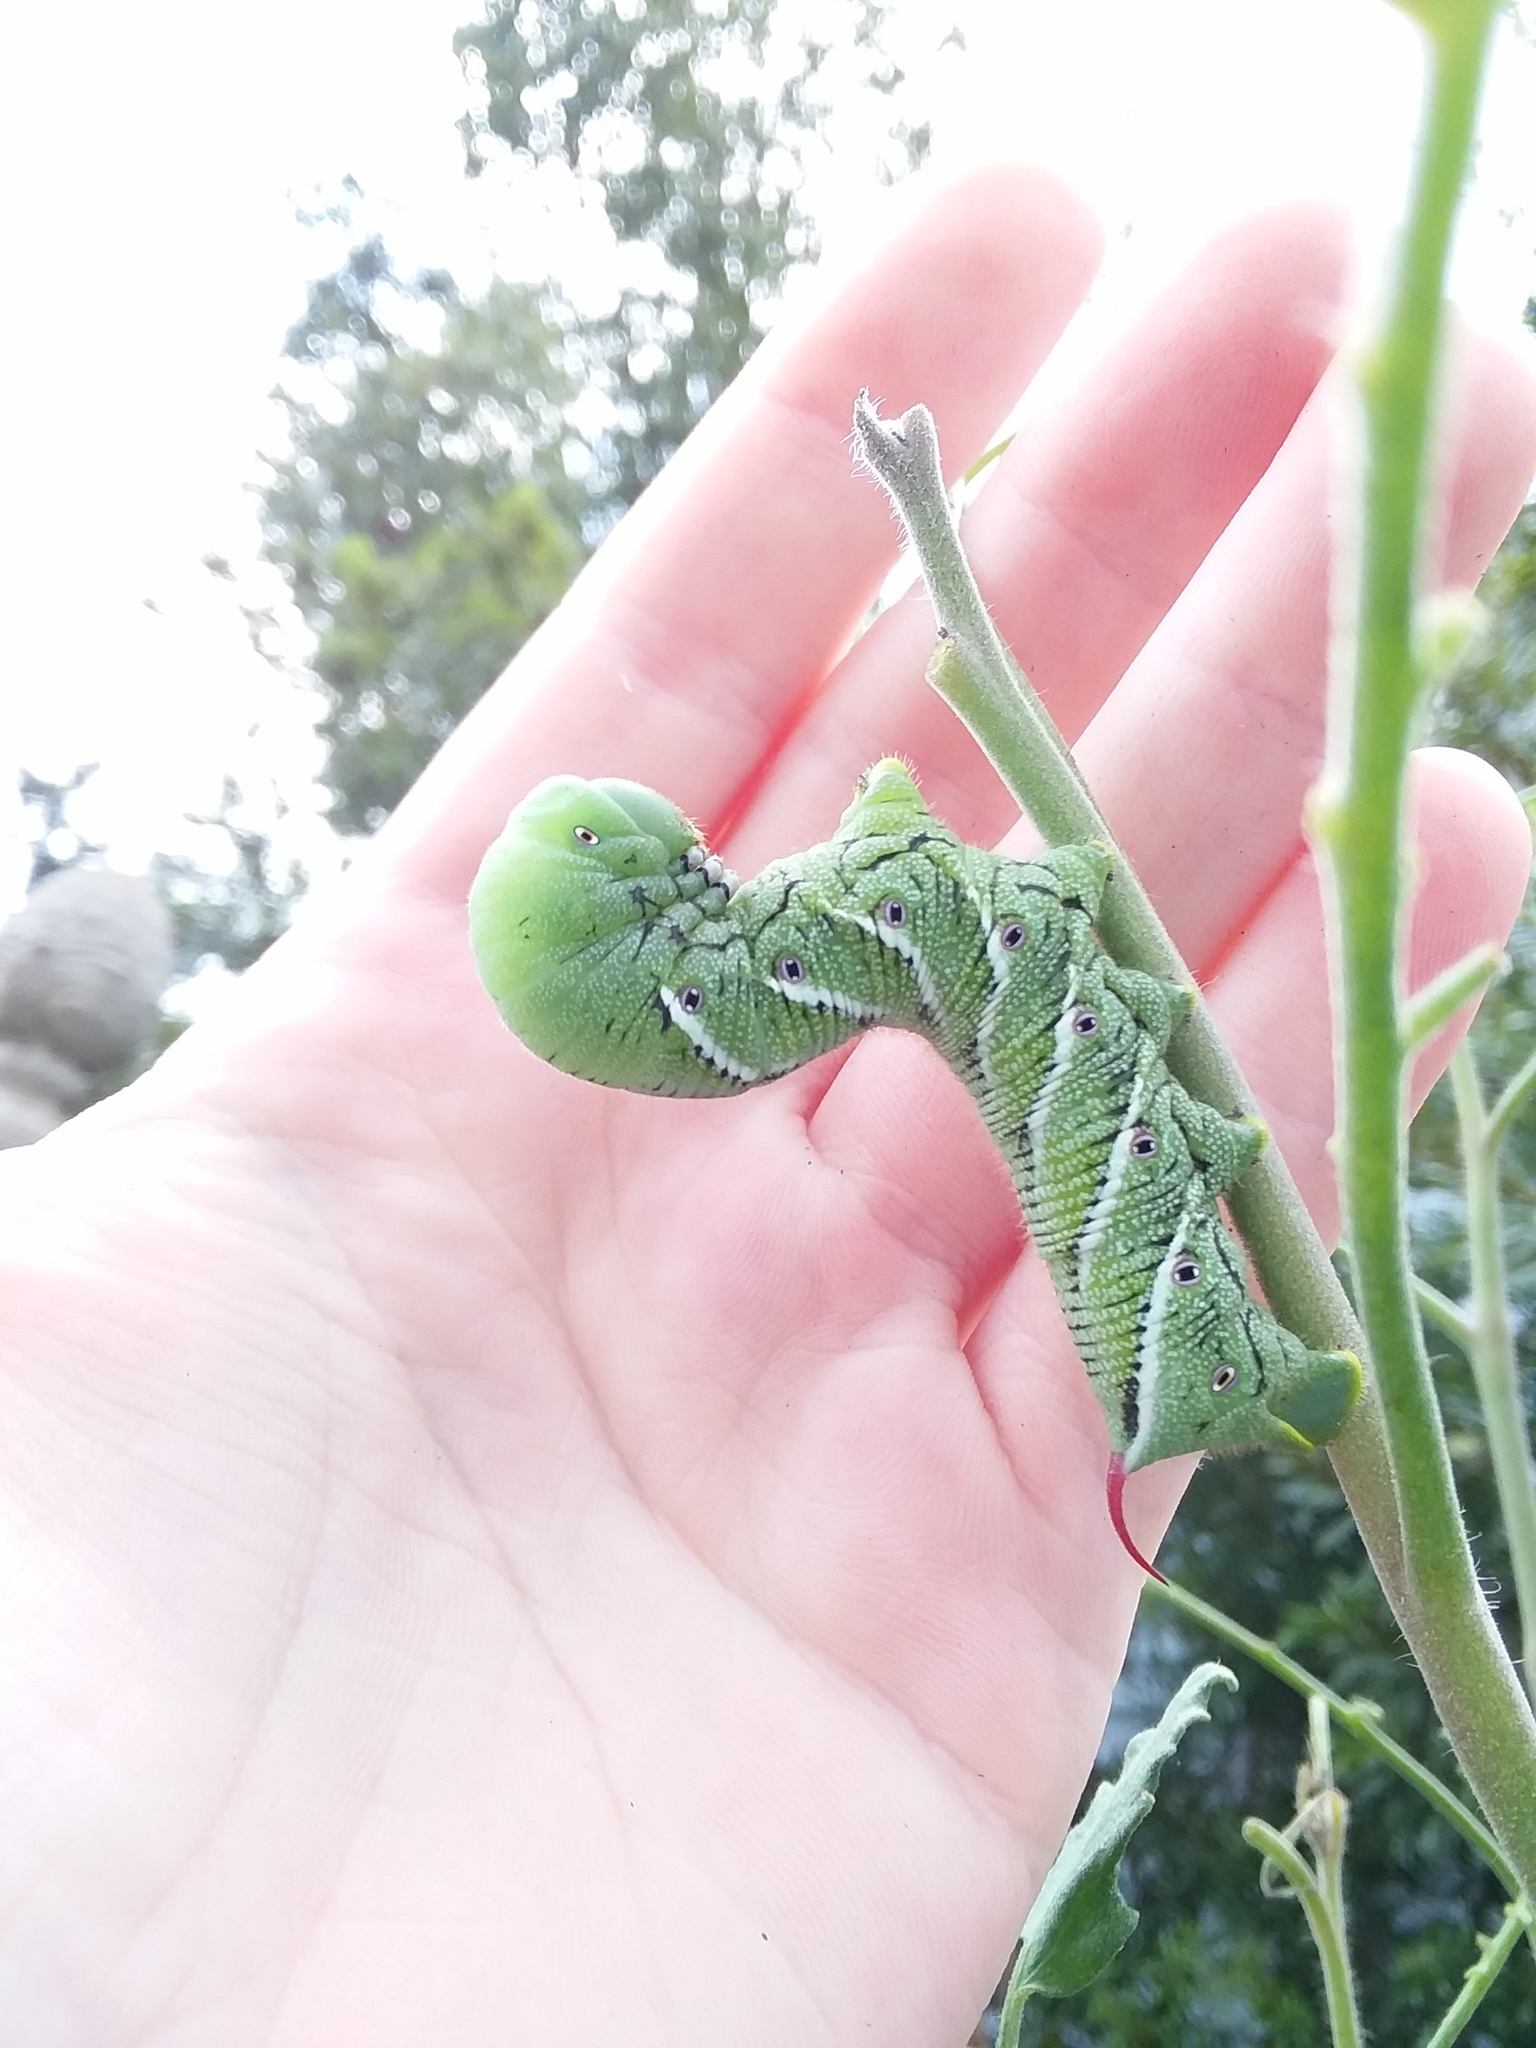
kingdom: Animalia
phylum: Arthropoda
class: Insecta
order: Lepidoptera
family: Sphingidae
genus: Manduca
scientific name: Manduca sexta
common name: Carolina sphinx
